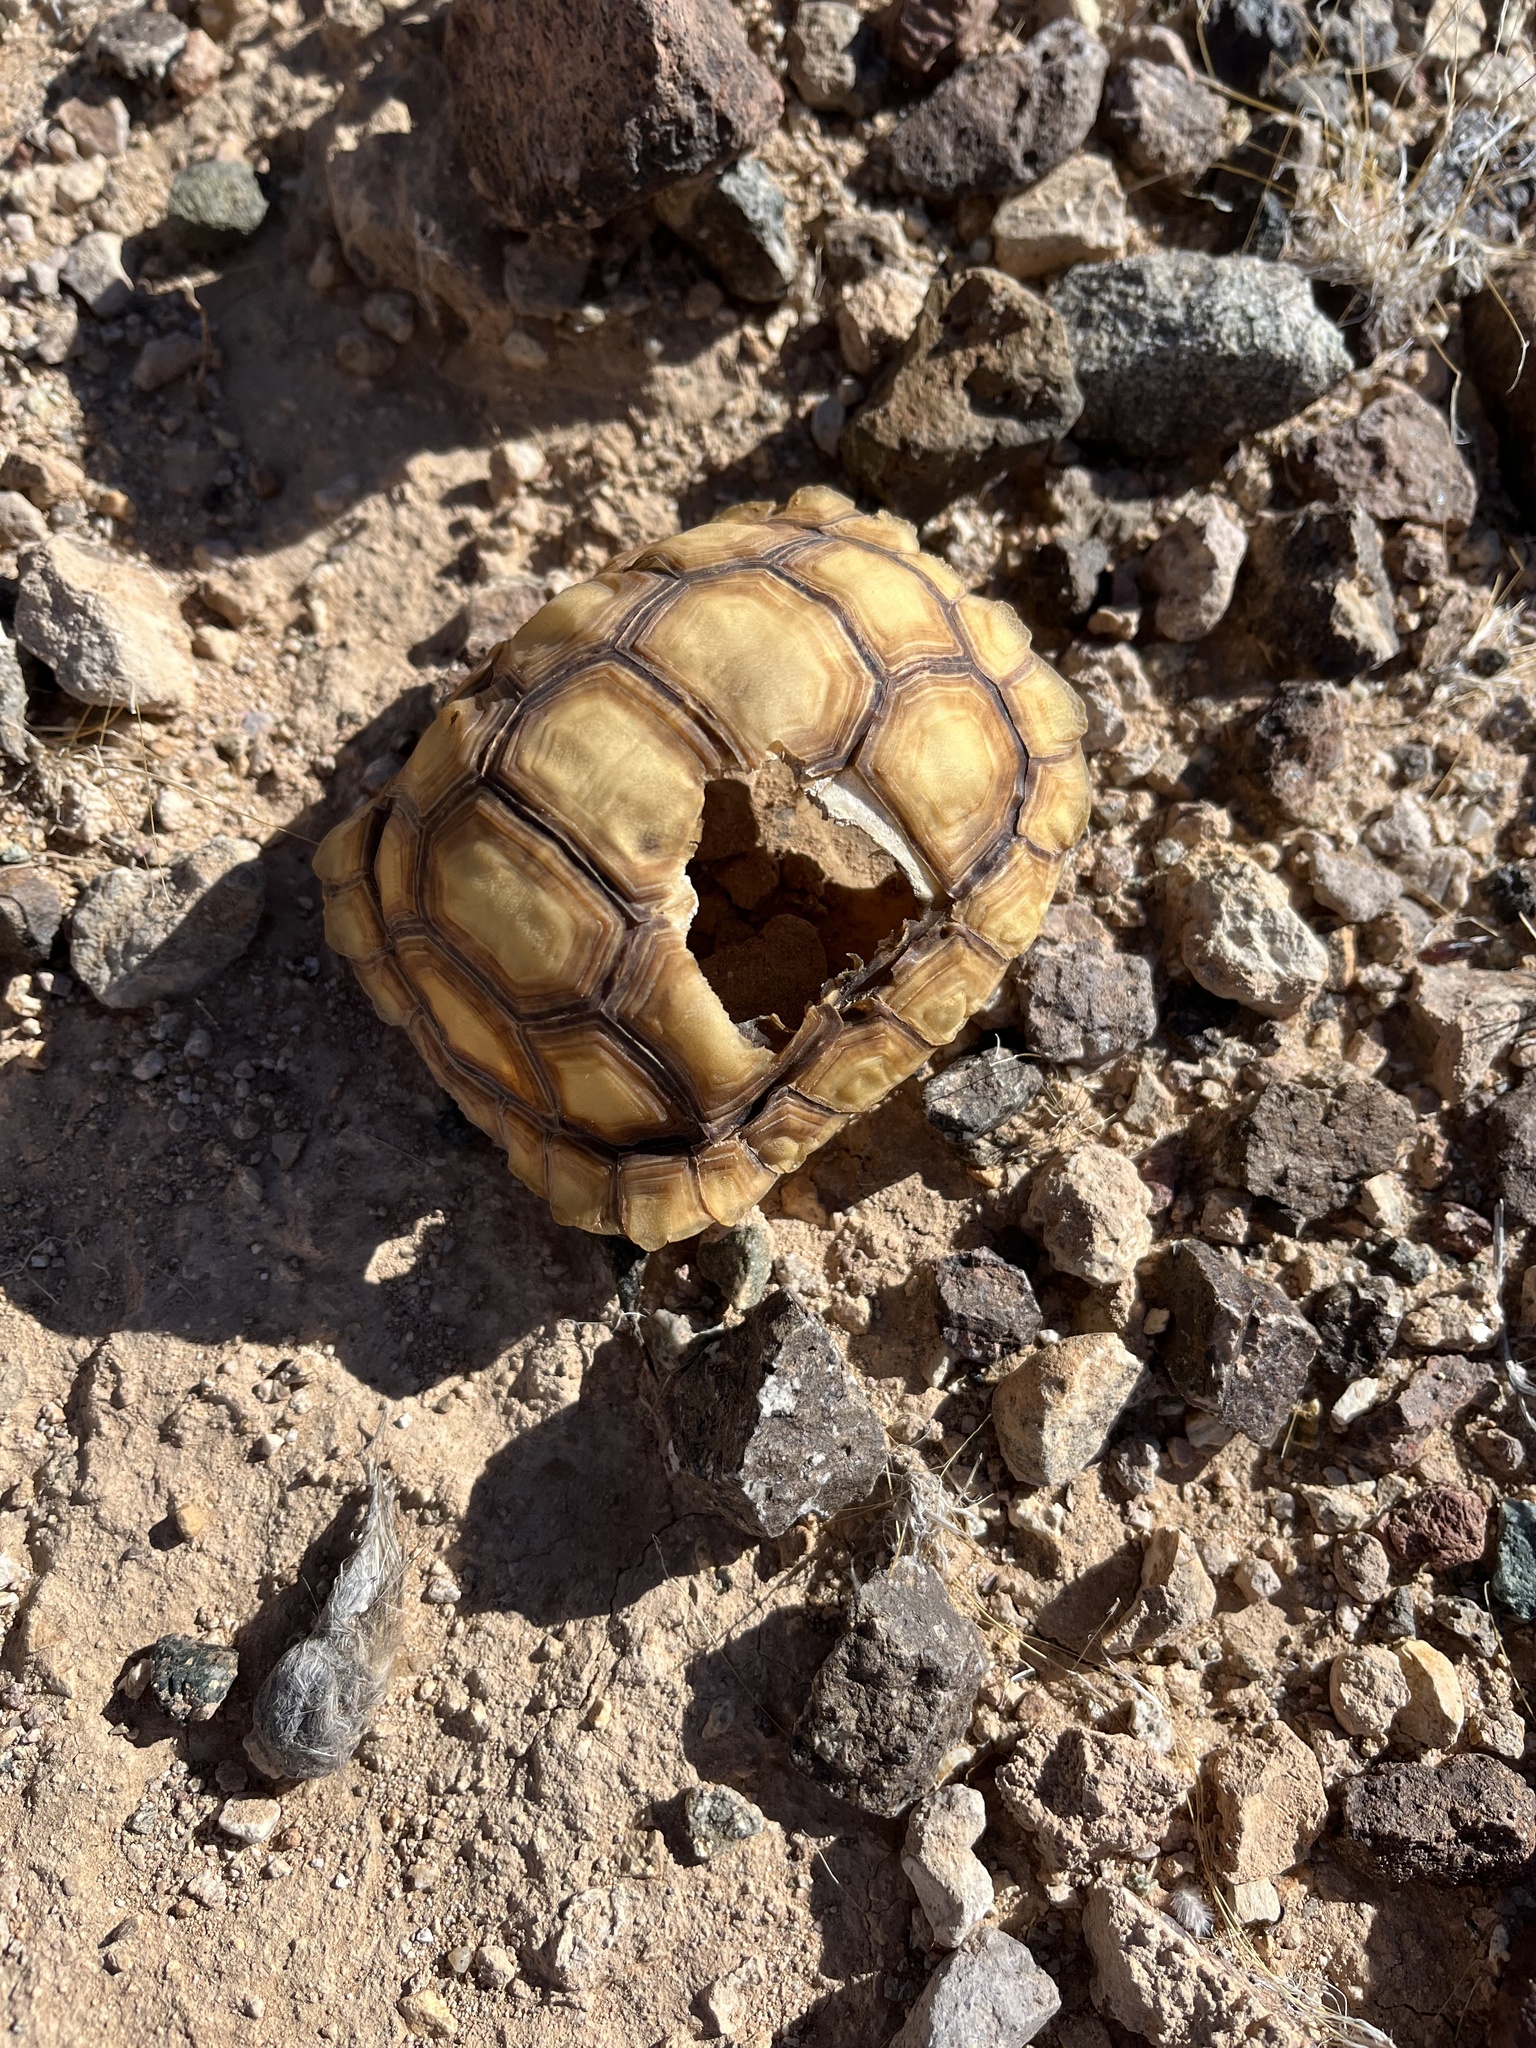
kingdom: Animalia
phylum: Chordata
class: Testudines
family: Testudinidae
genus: Gopherus
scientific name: Gopherus agassizii
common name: Mojave desert tortoise
